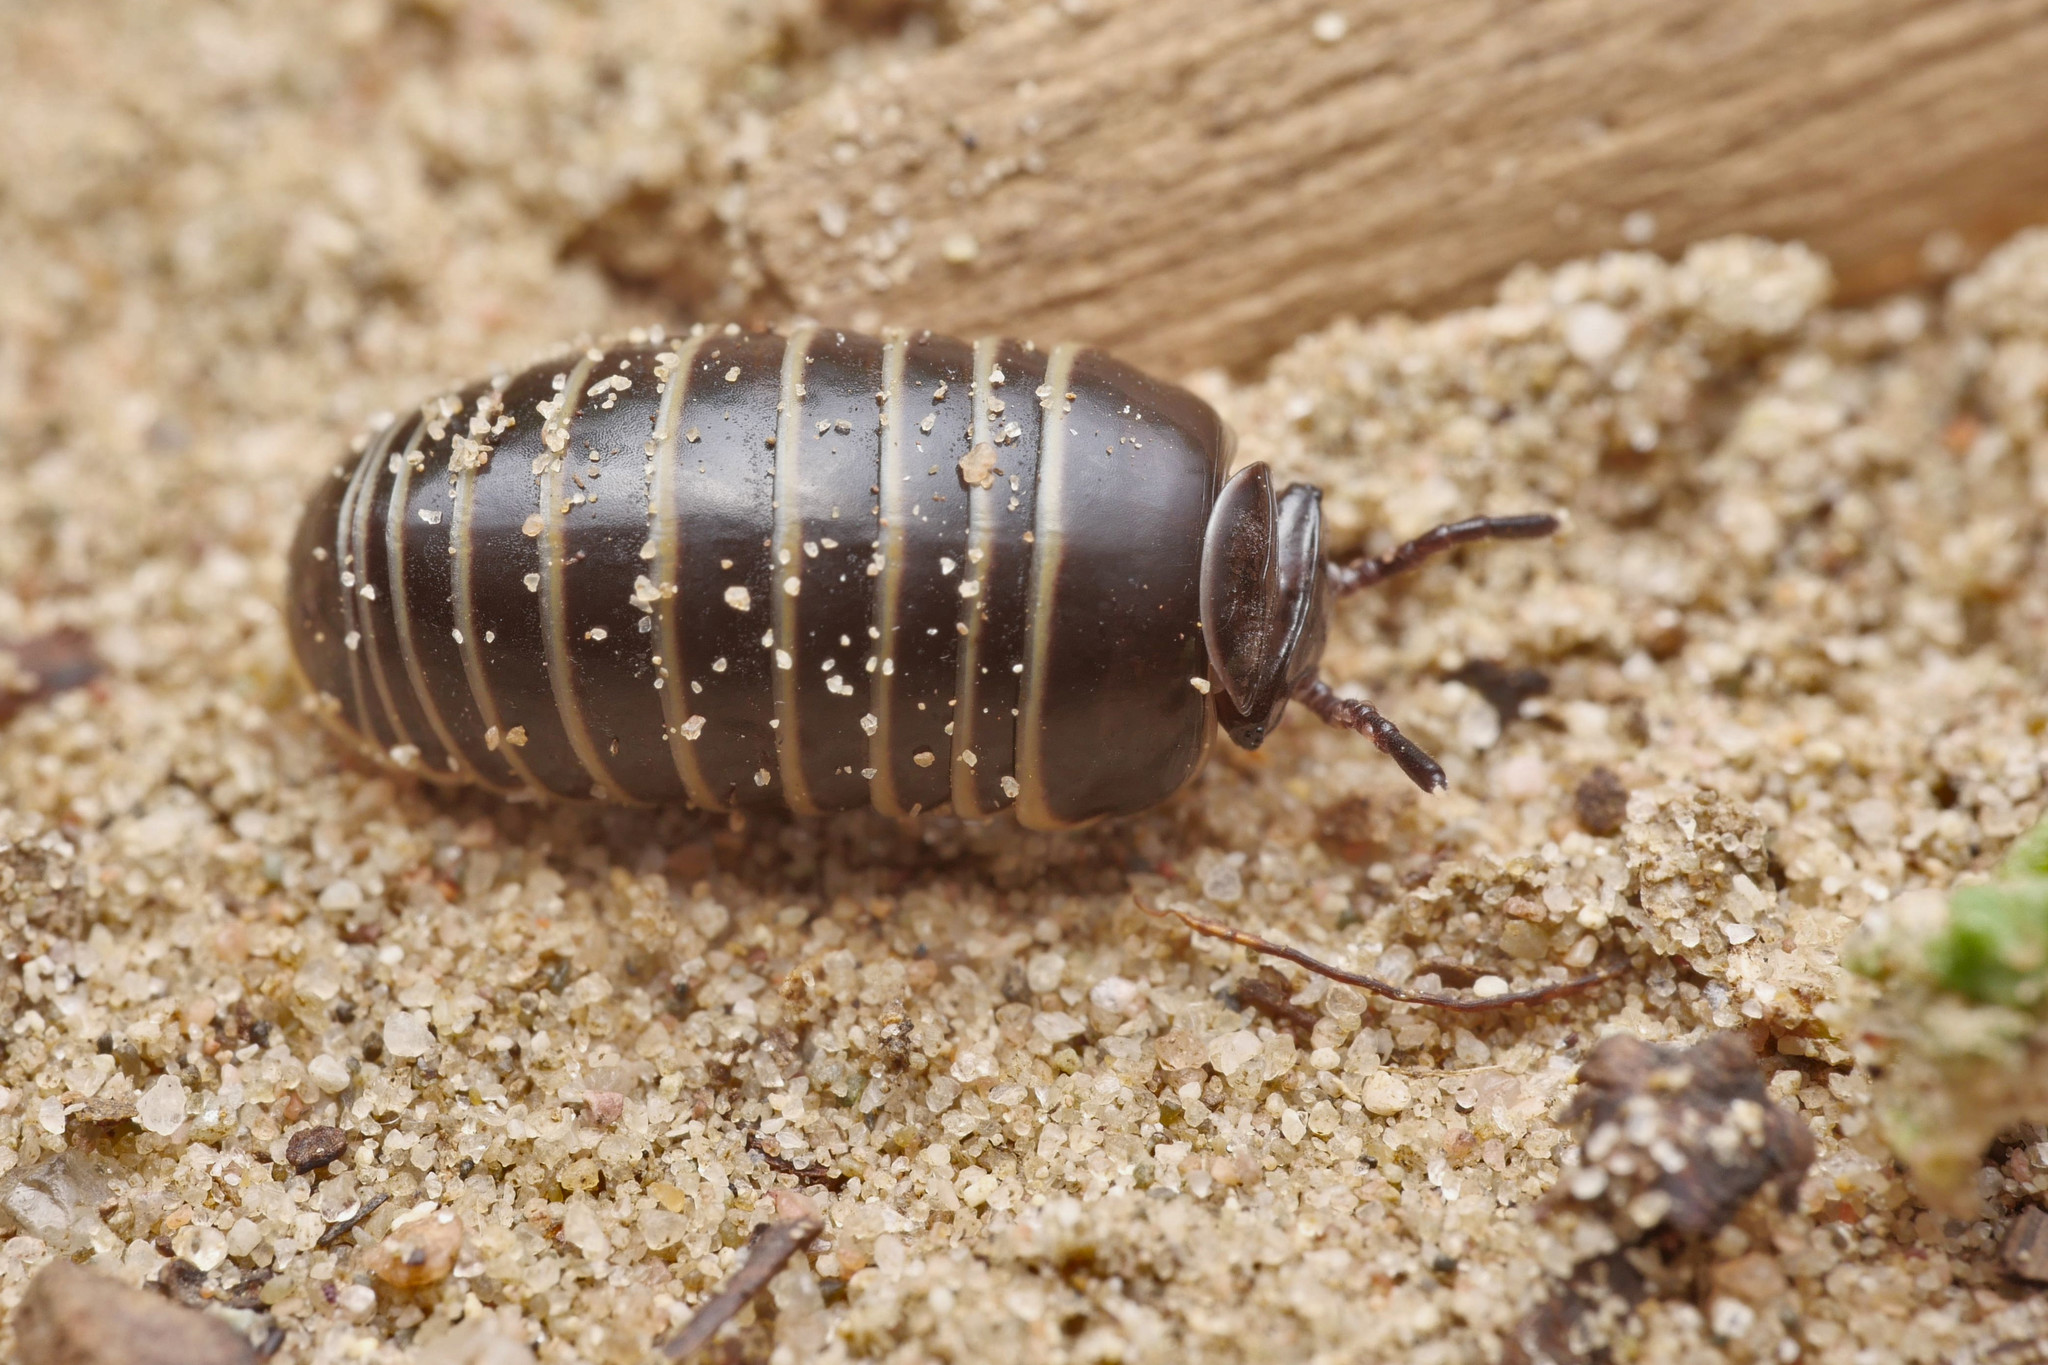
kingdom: Animalia
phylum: Arthropoda
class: Diplopoda
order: Glomerida
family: Glomeridae
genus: Glomeris
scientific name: Glomeris marginata
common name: Bordered pill millipede
